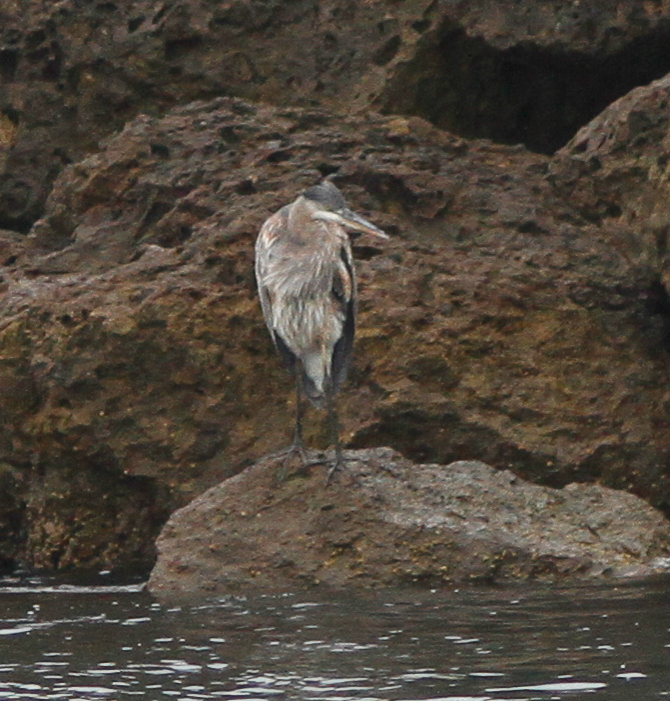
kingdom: Animalia
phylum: Chordata
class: Aves
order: Pelecaniformes
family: Ardeidae
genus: Ardea
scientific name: Ardea herodias
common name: Great blue heron
